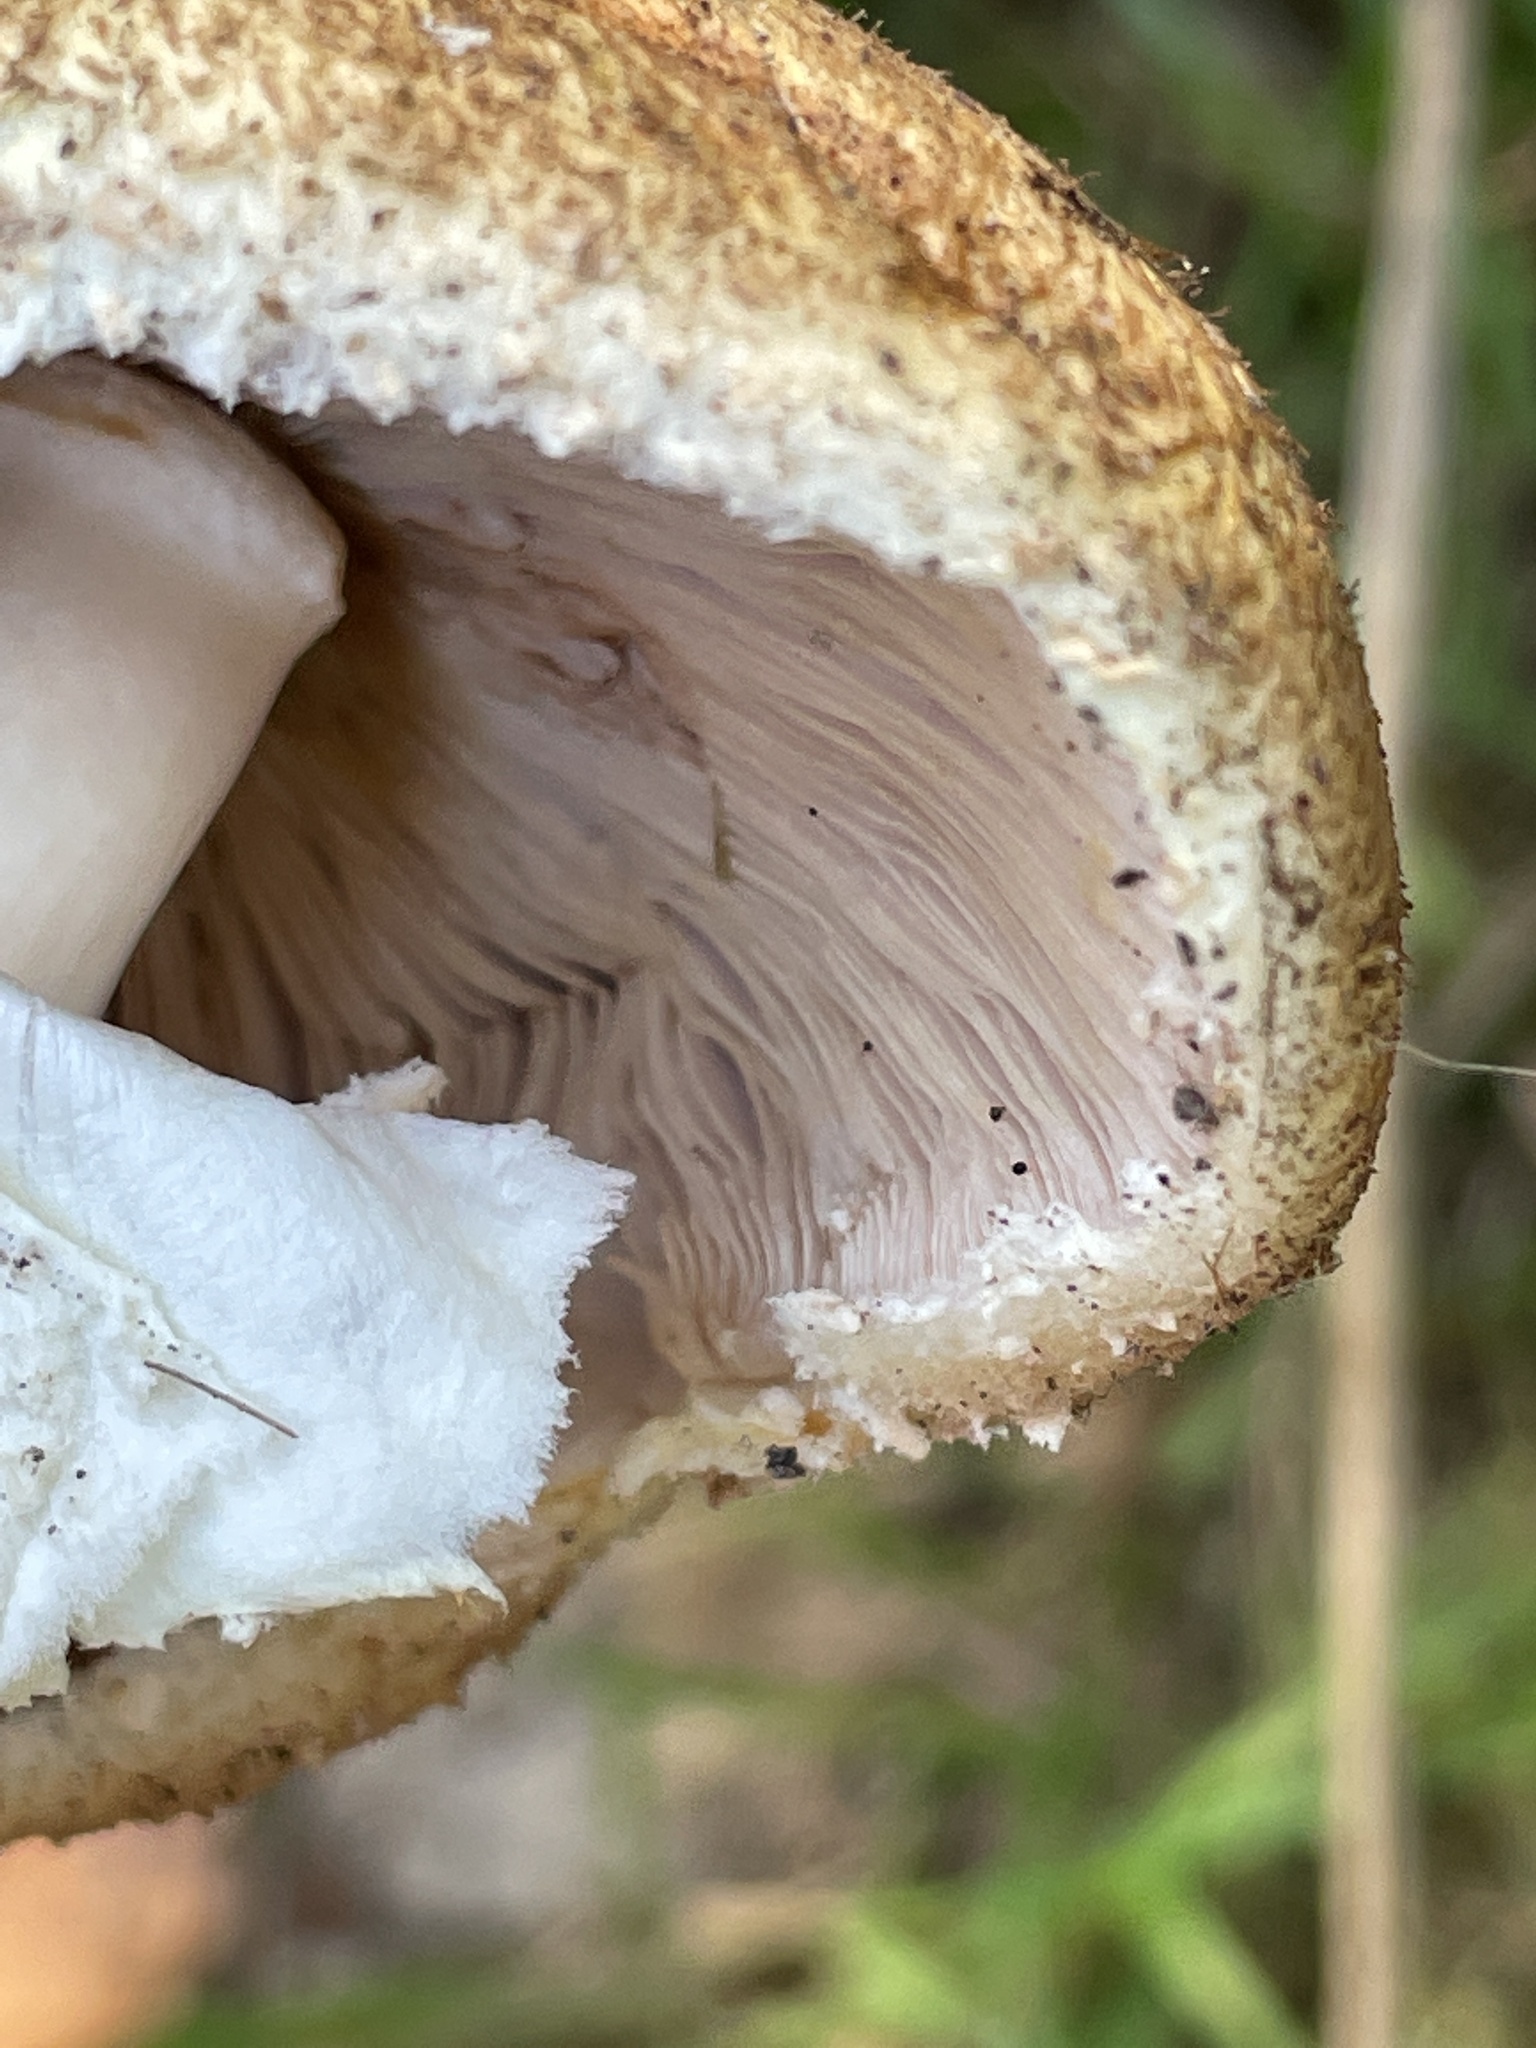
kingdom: Fungi
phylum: Basidiomycota
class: Agaricomycetes
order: Agaricales
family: Agaricaceae
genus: Agaricus
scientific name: Agaricus augustus
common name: Prince
